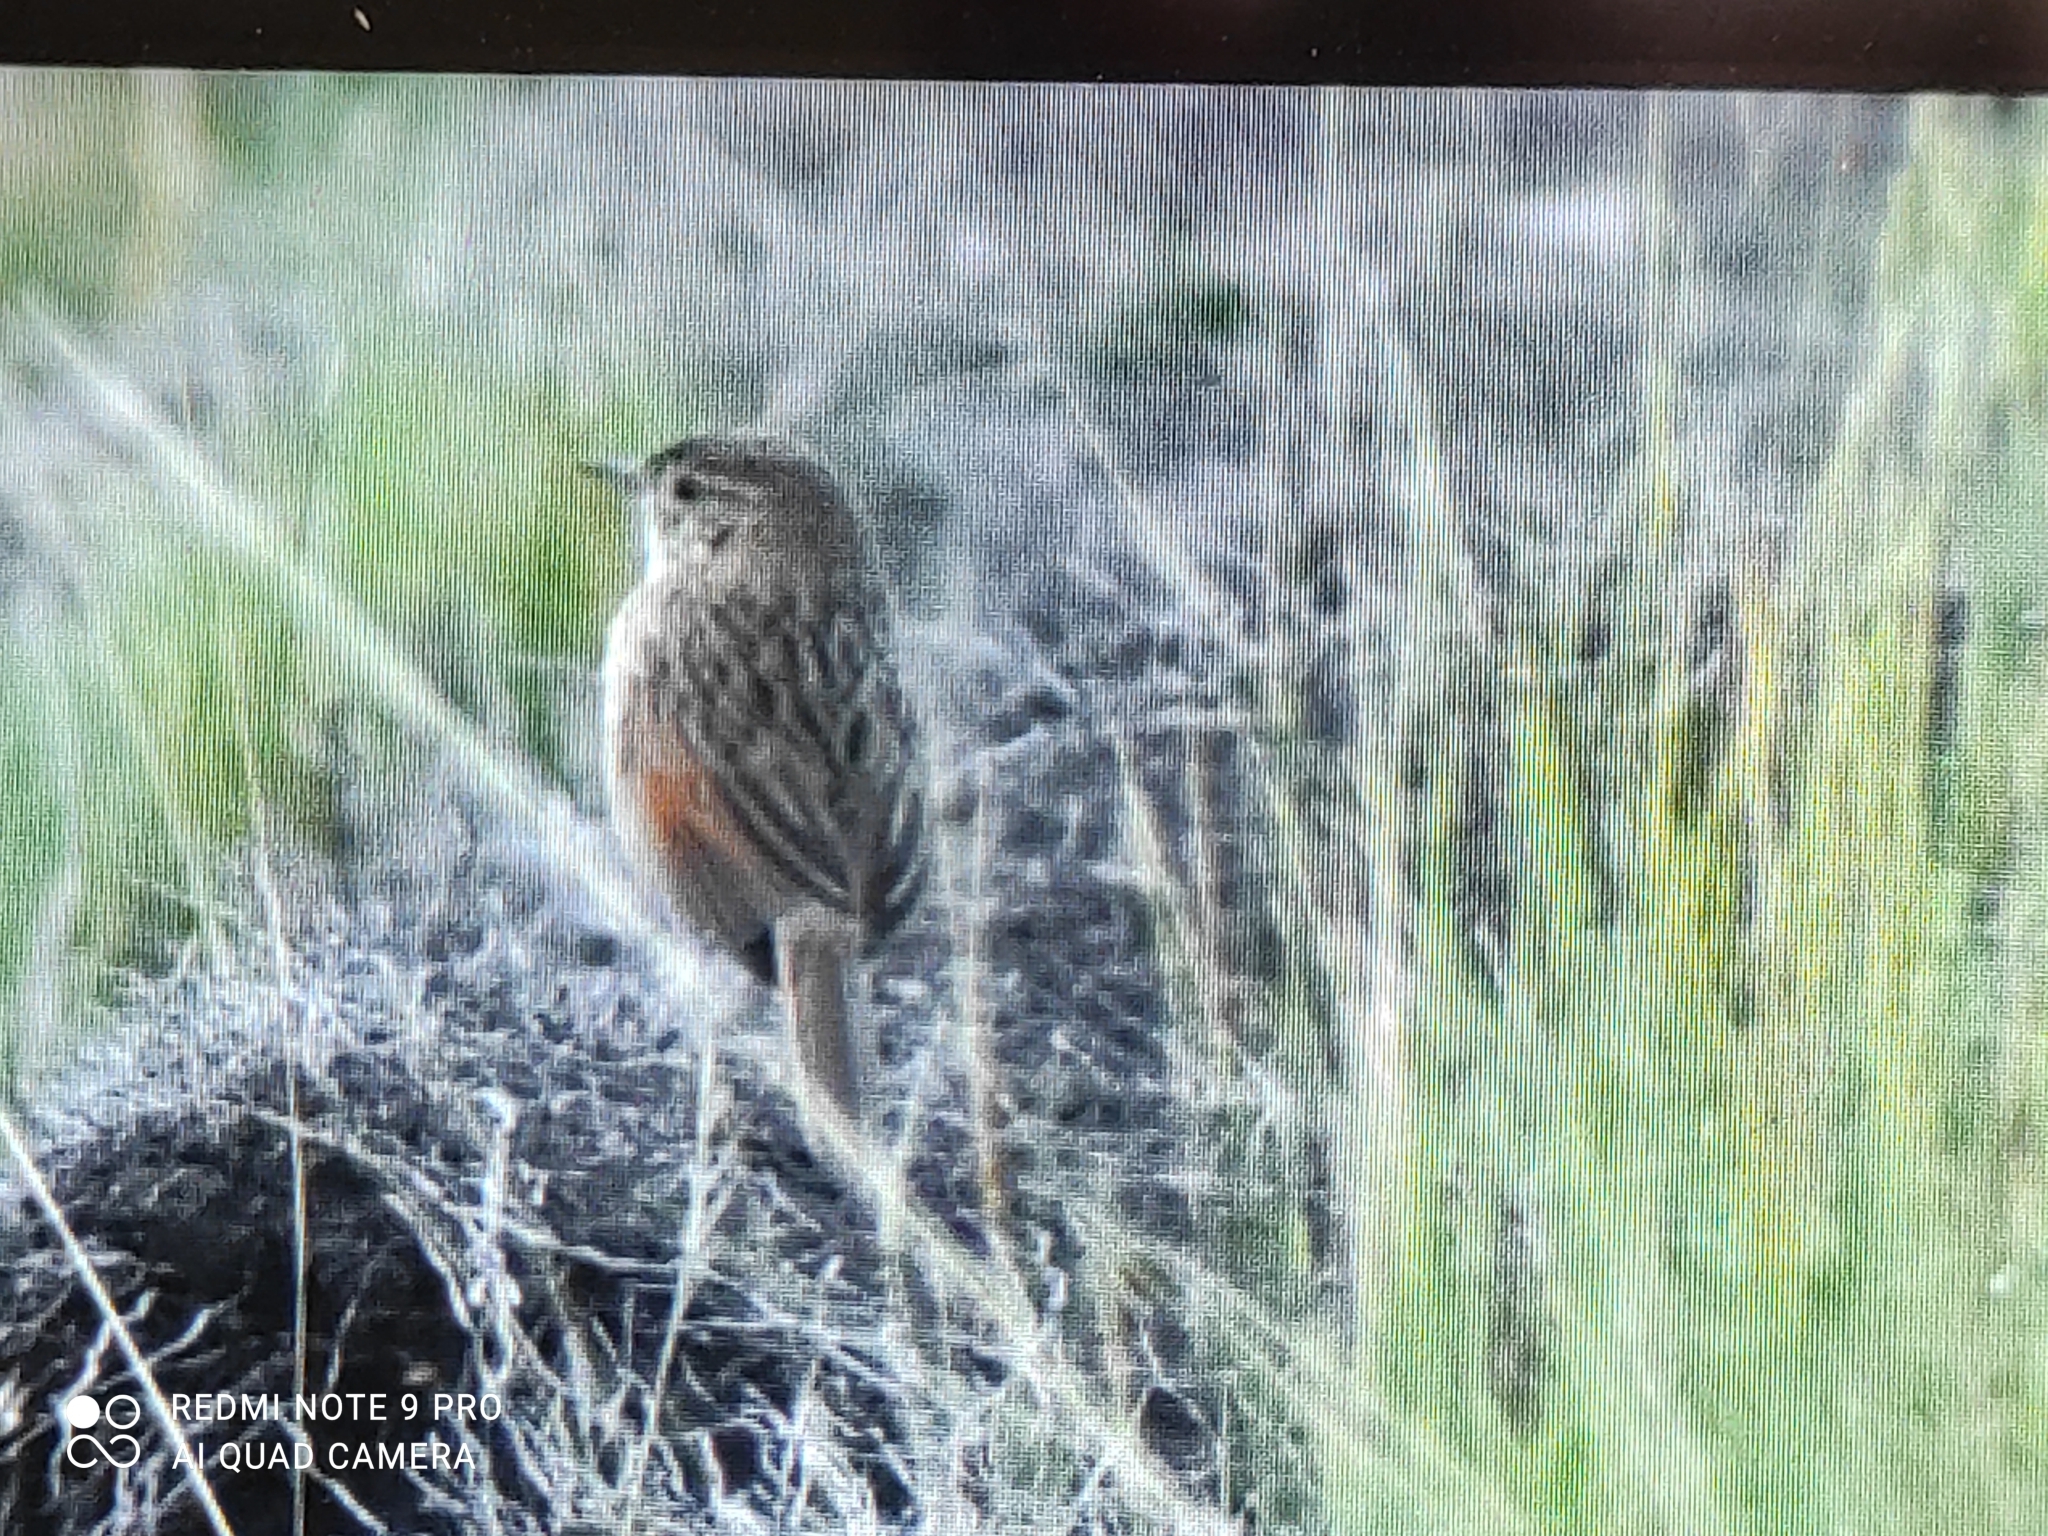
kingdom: Animalia
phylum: Chordata
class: Aves
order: Passeriformes
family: Furnariidae
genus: Asthenes
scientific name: Asthenes flammulata
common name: Many-striped canastero
